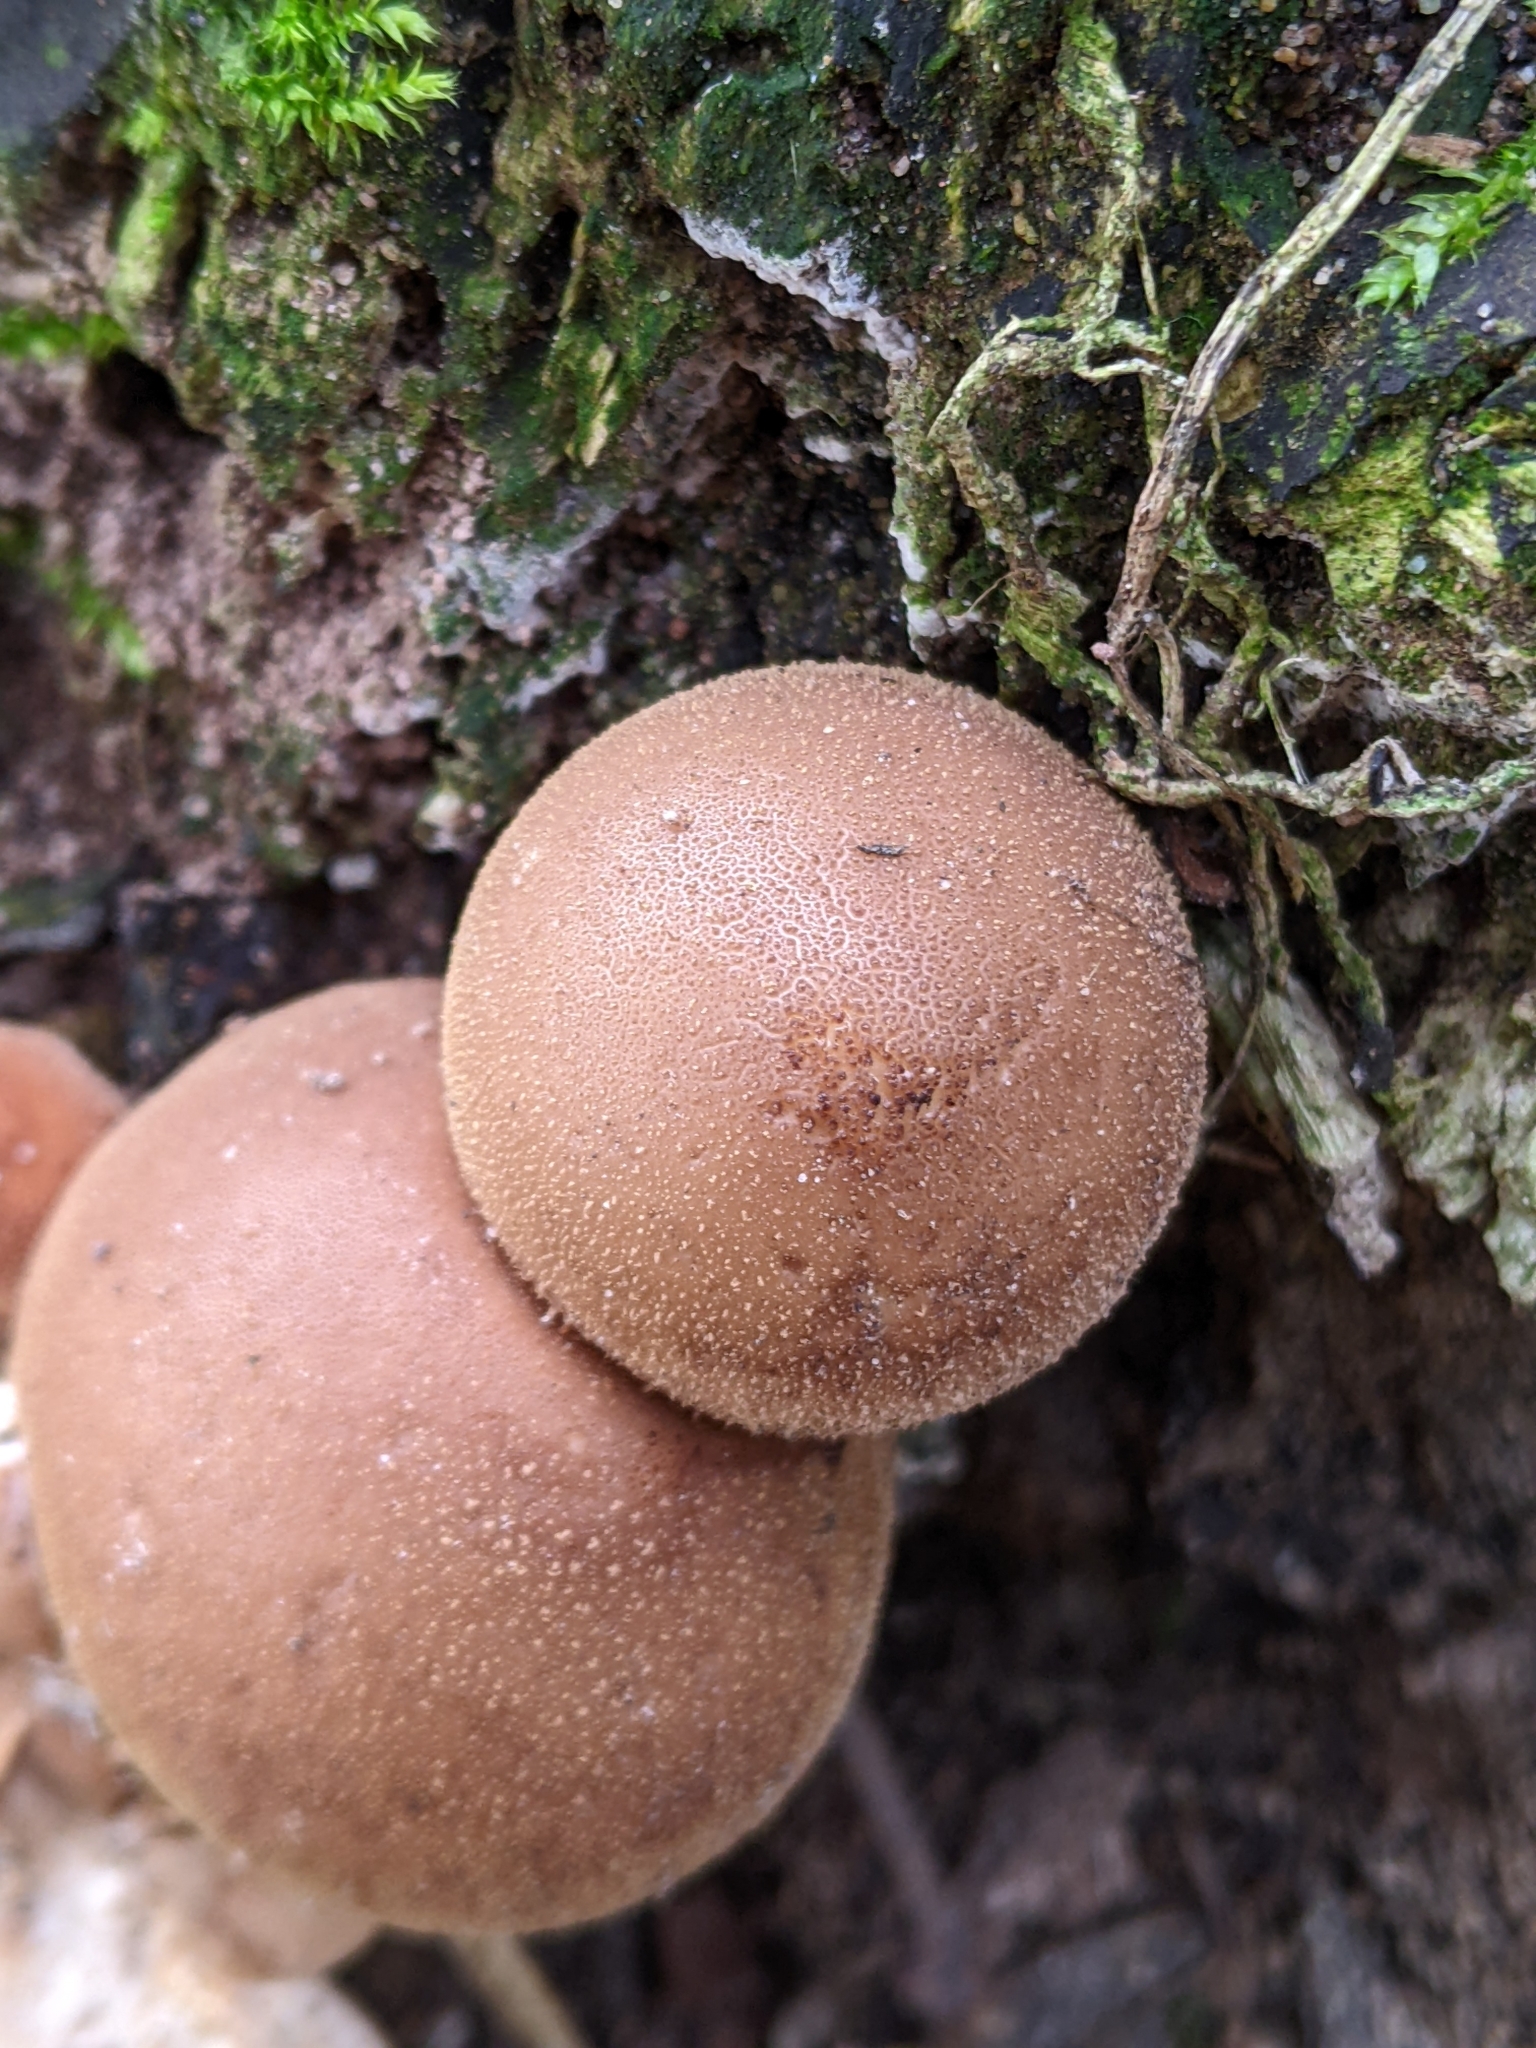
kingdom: Fungi
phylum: Basidiomycota
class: Agaricomycetes
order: Agaricales
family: Lycoperdaceae
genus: Apioperdon
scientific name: Apioperdon pyriforme
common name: Pear-shaped puffball
